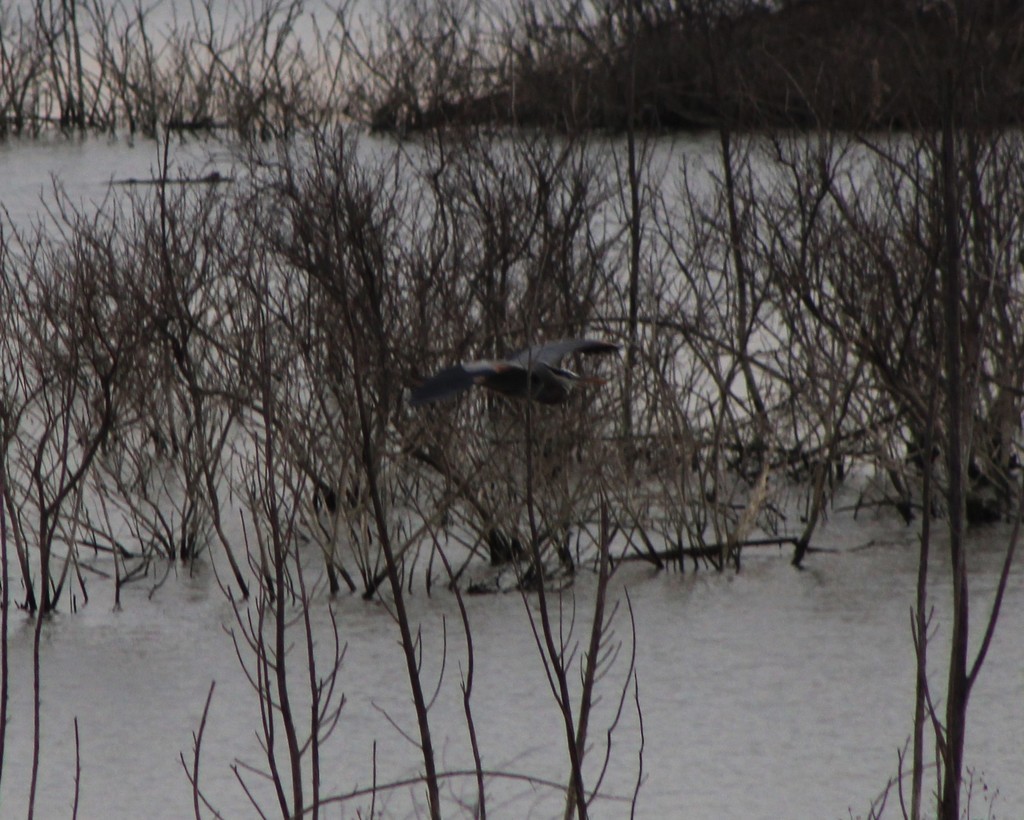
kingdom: Animalia
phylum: Chordata
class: Aves
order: Pelecaniformes
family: Ardeidae
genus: Ardea
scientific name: Ardea herodias
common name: Great blue heron
